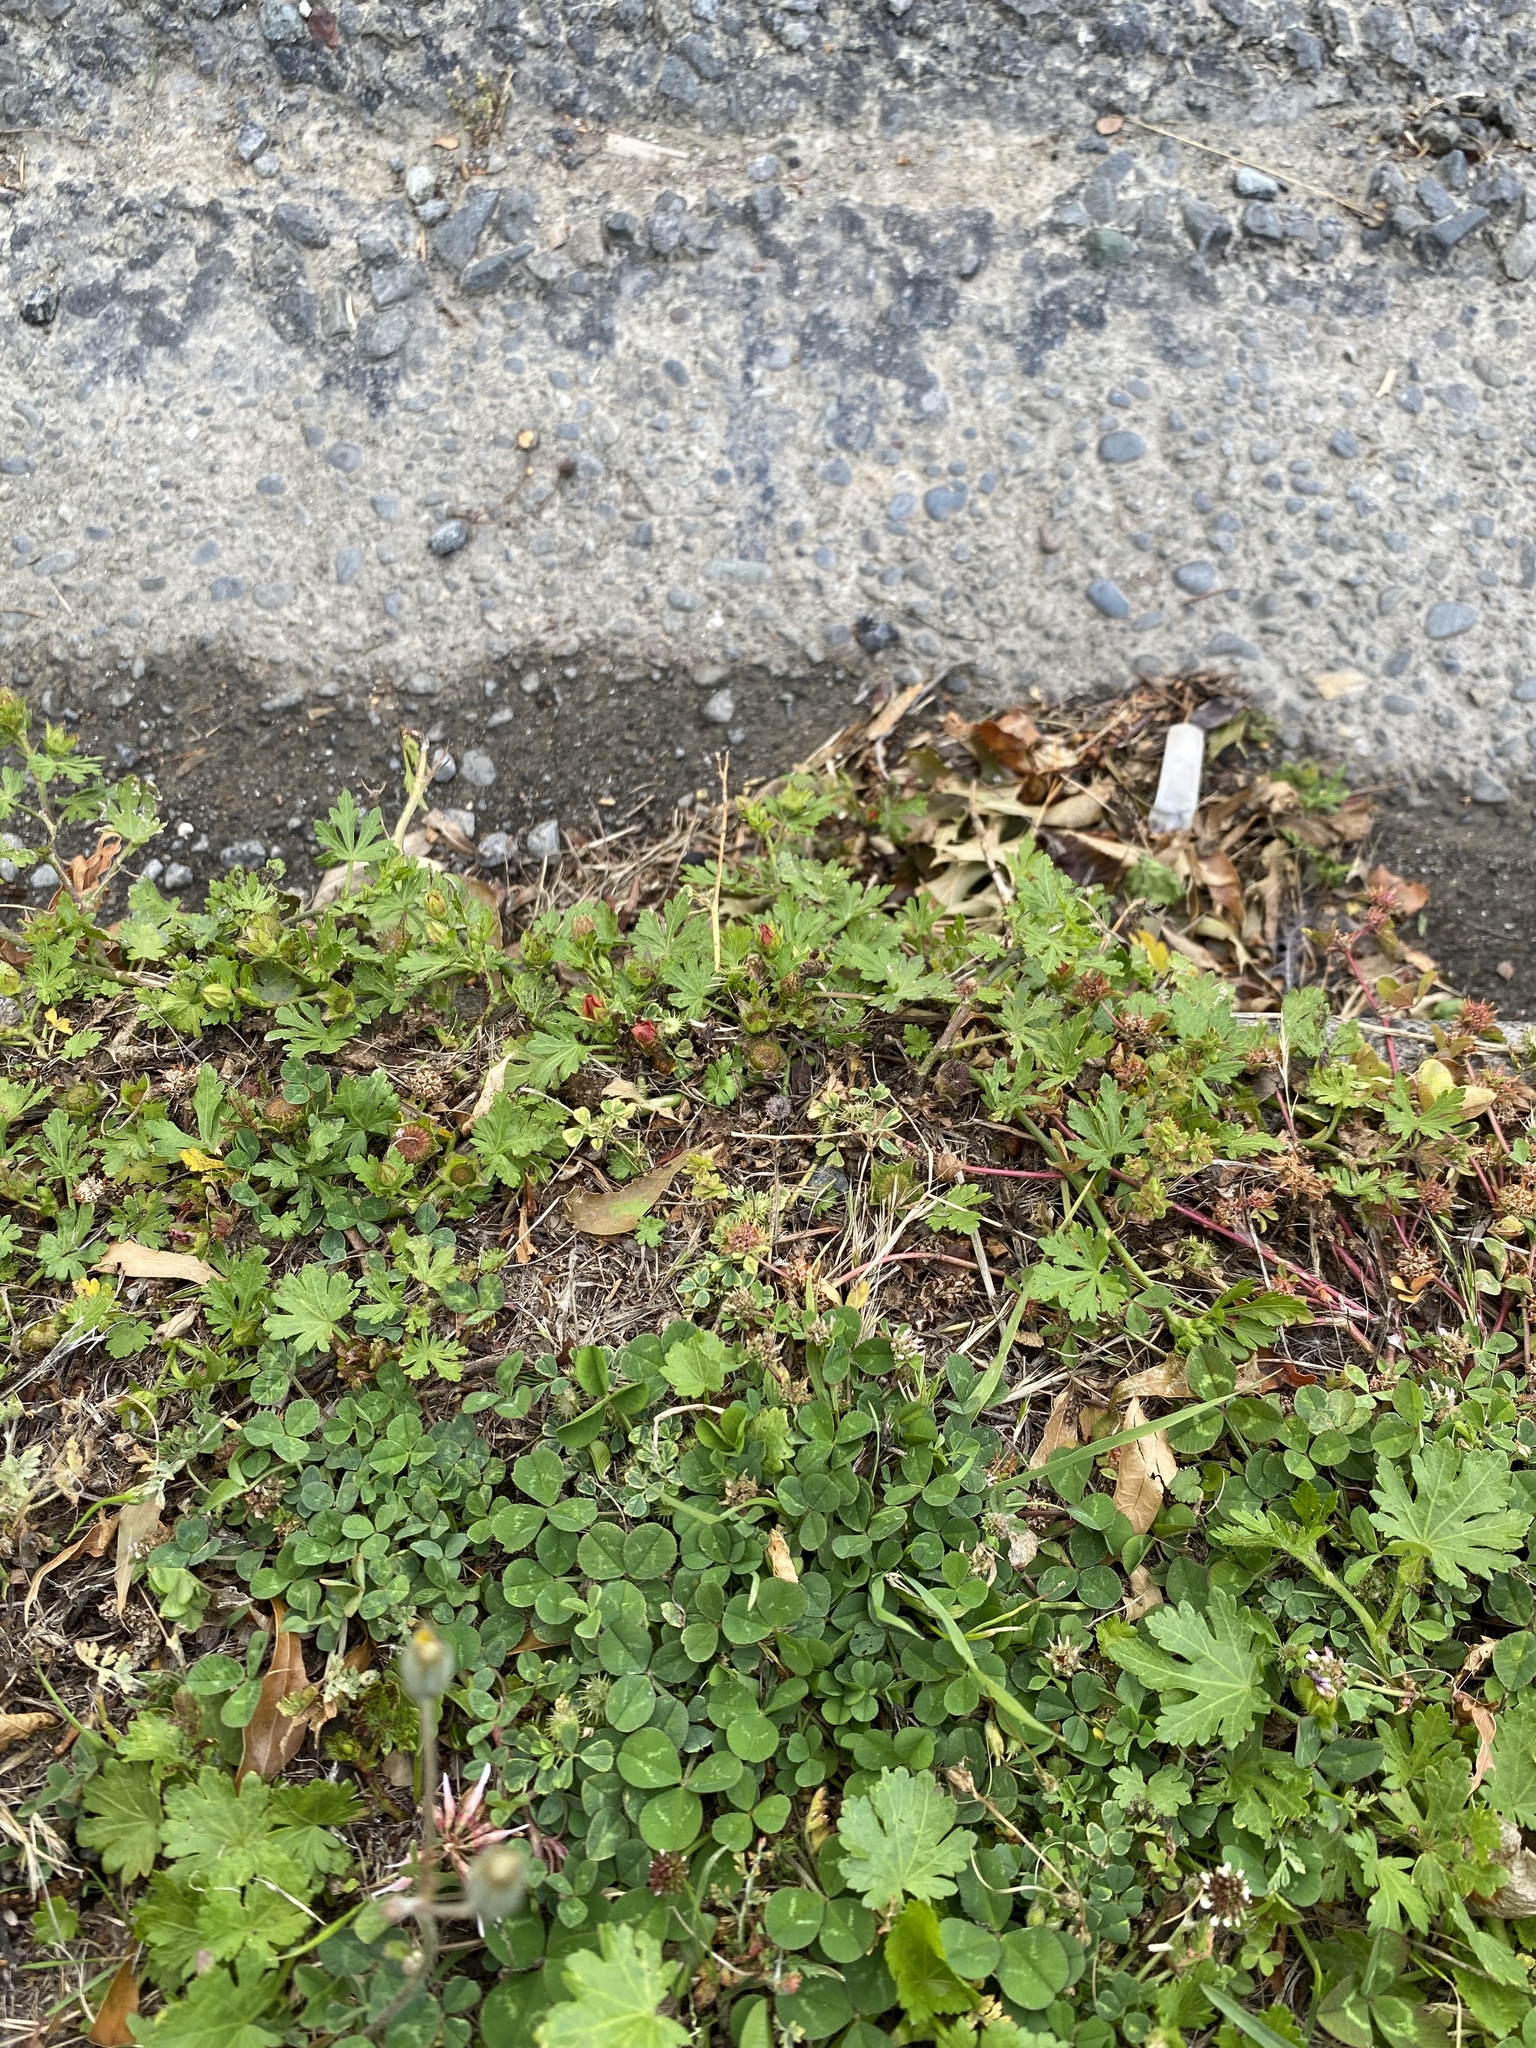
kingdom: Plantae
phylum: Tracheophyta
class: Magnoliopsida
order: Malvales
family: Malvaceae
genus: Modiola
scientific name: Modiola caroliniana
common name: Carolina bristlemallow
